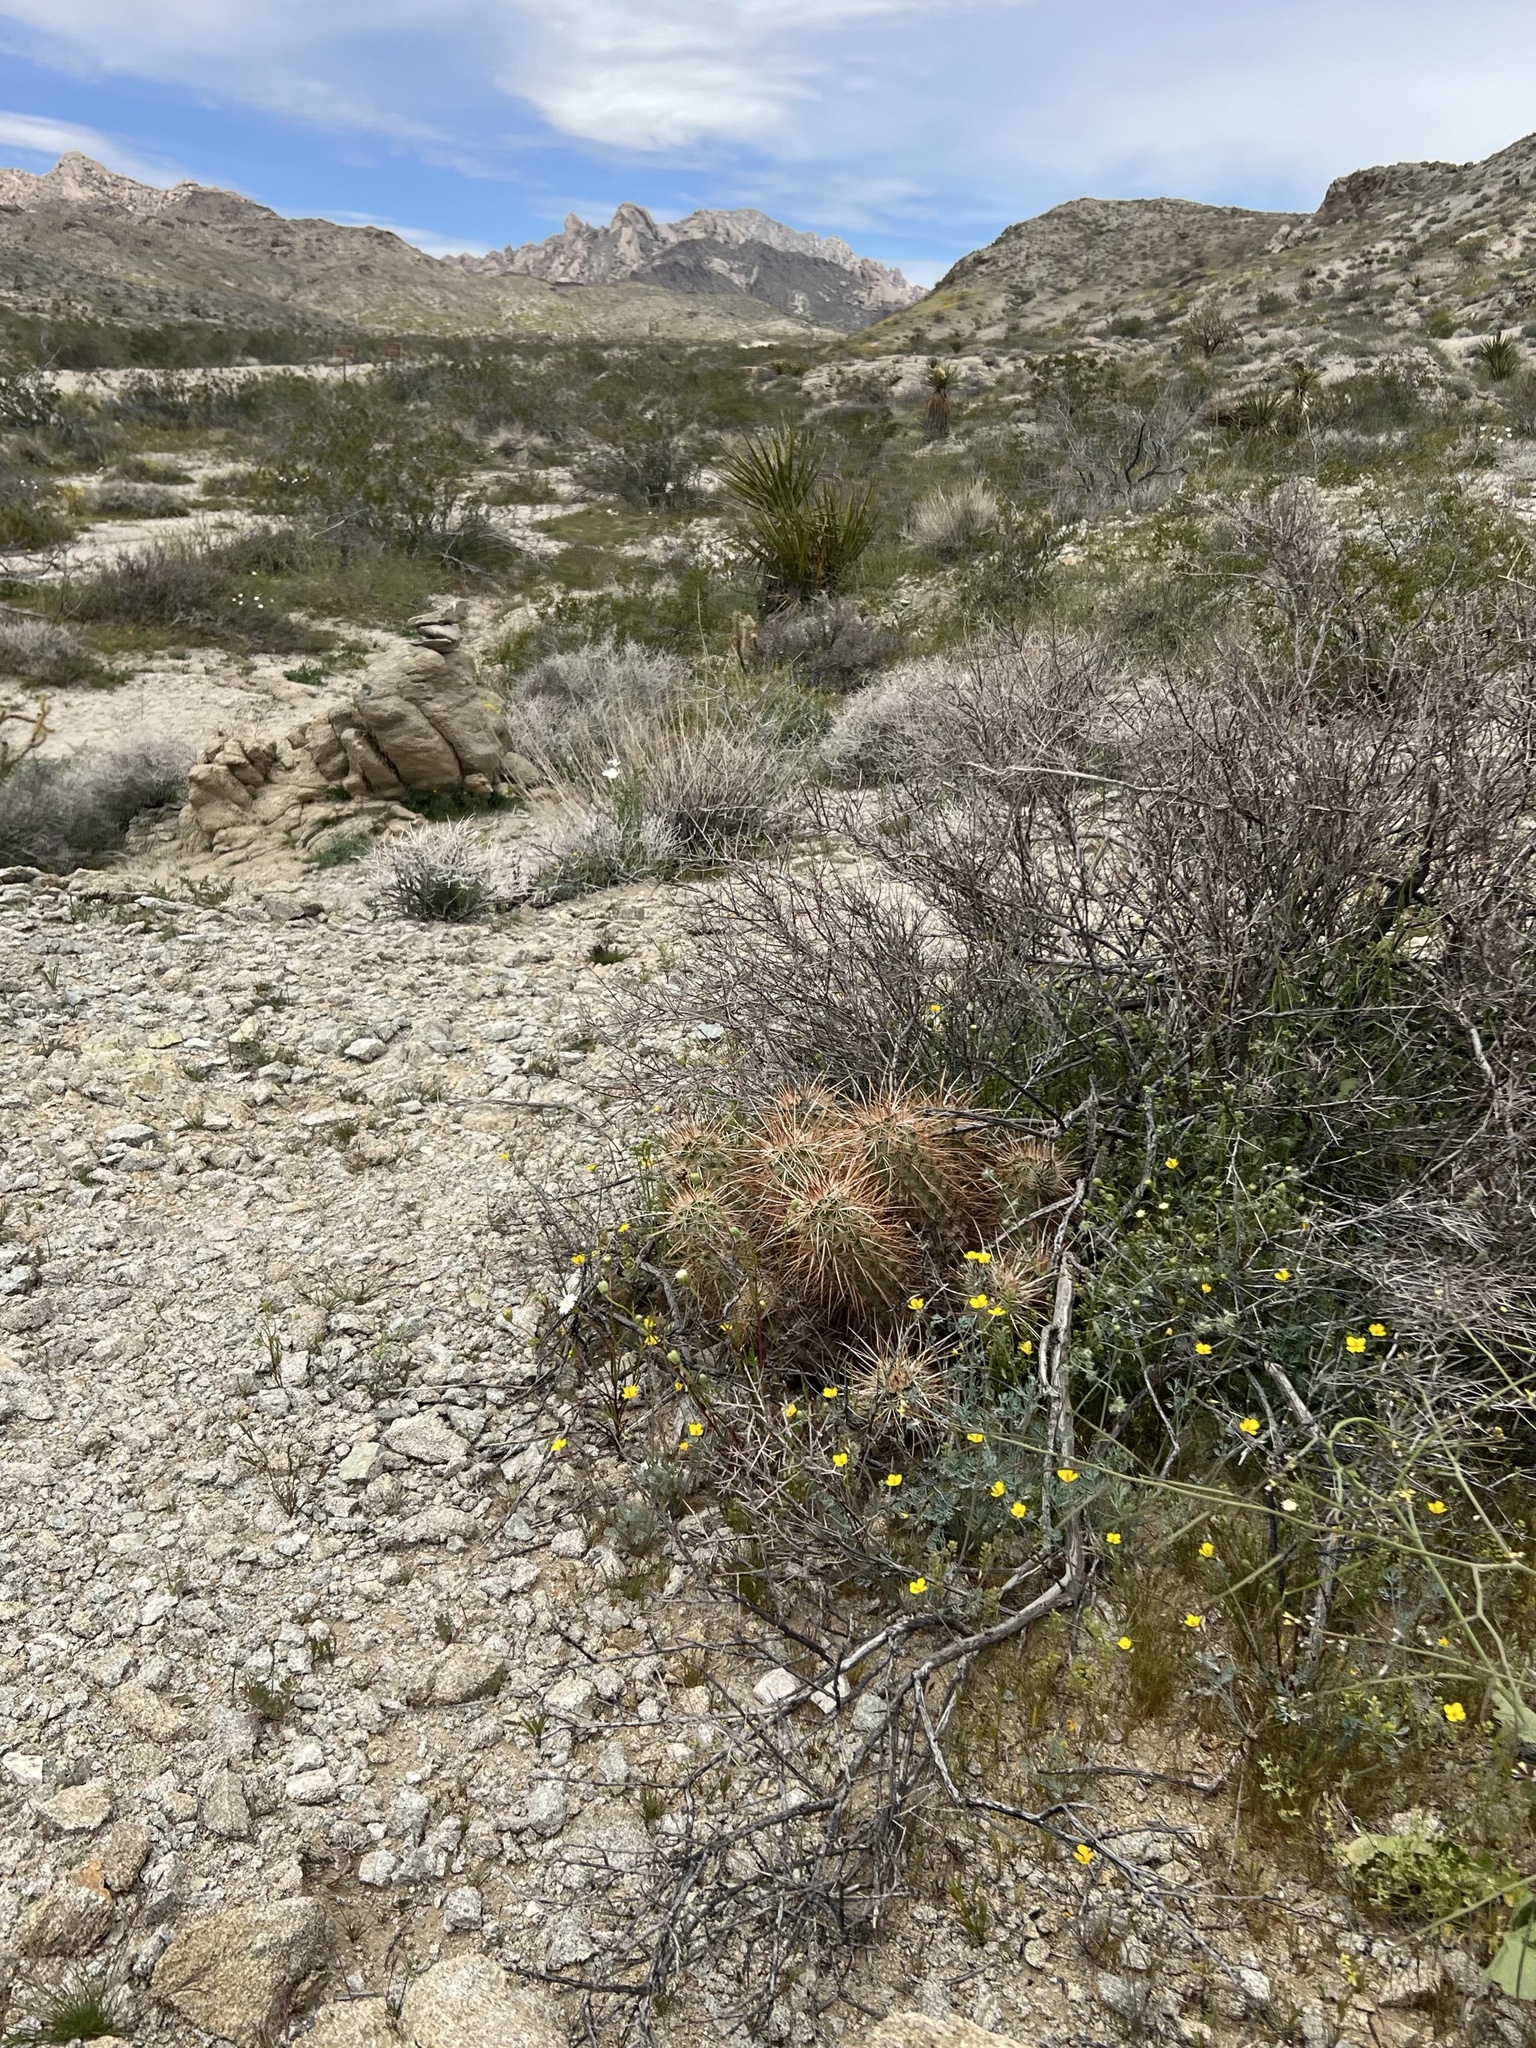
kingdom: Plantae
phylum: Tracheophyta
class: Magnoliopsida
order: Caryophyllales
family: Cactaceae
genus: Echinocereus
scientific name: Echinocereus engelmannii
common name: Engelmann's hedgehog cactus
